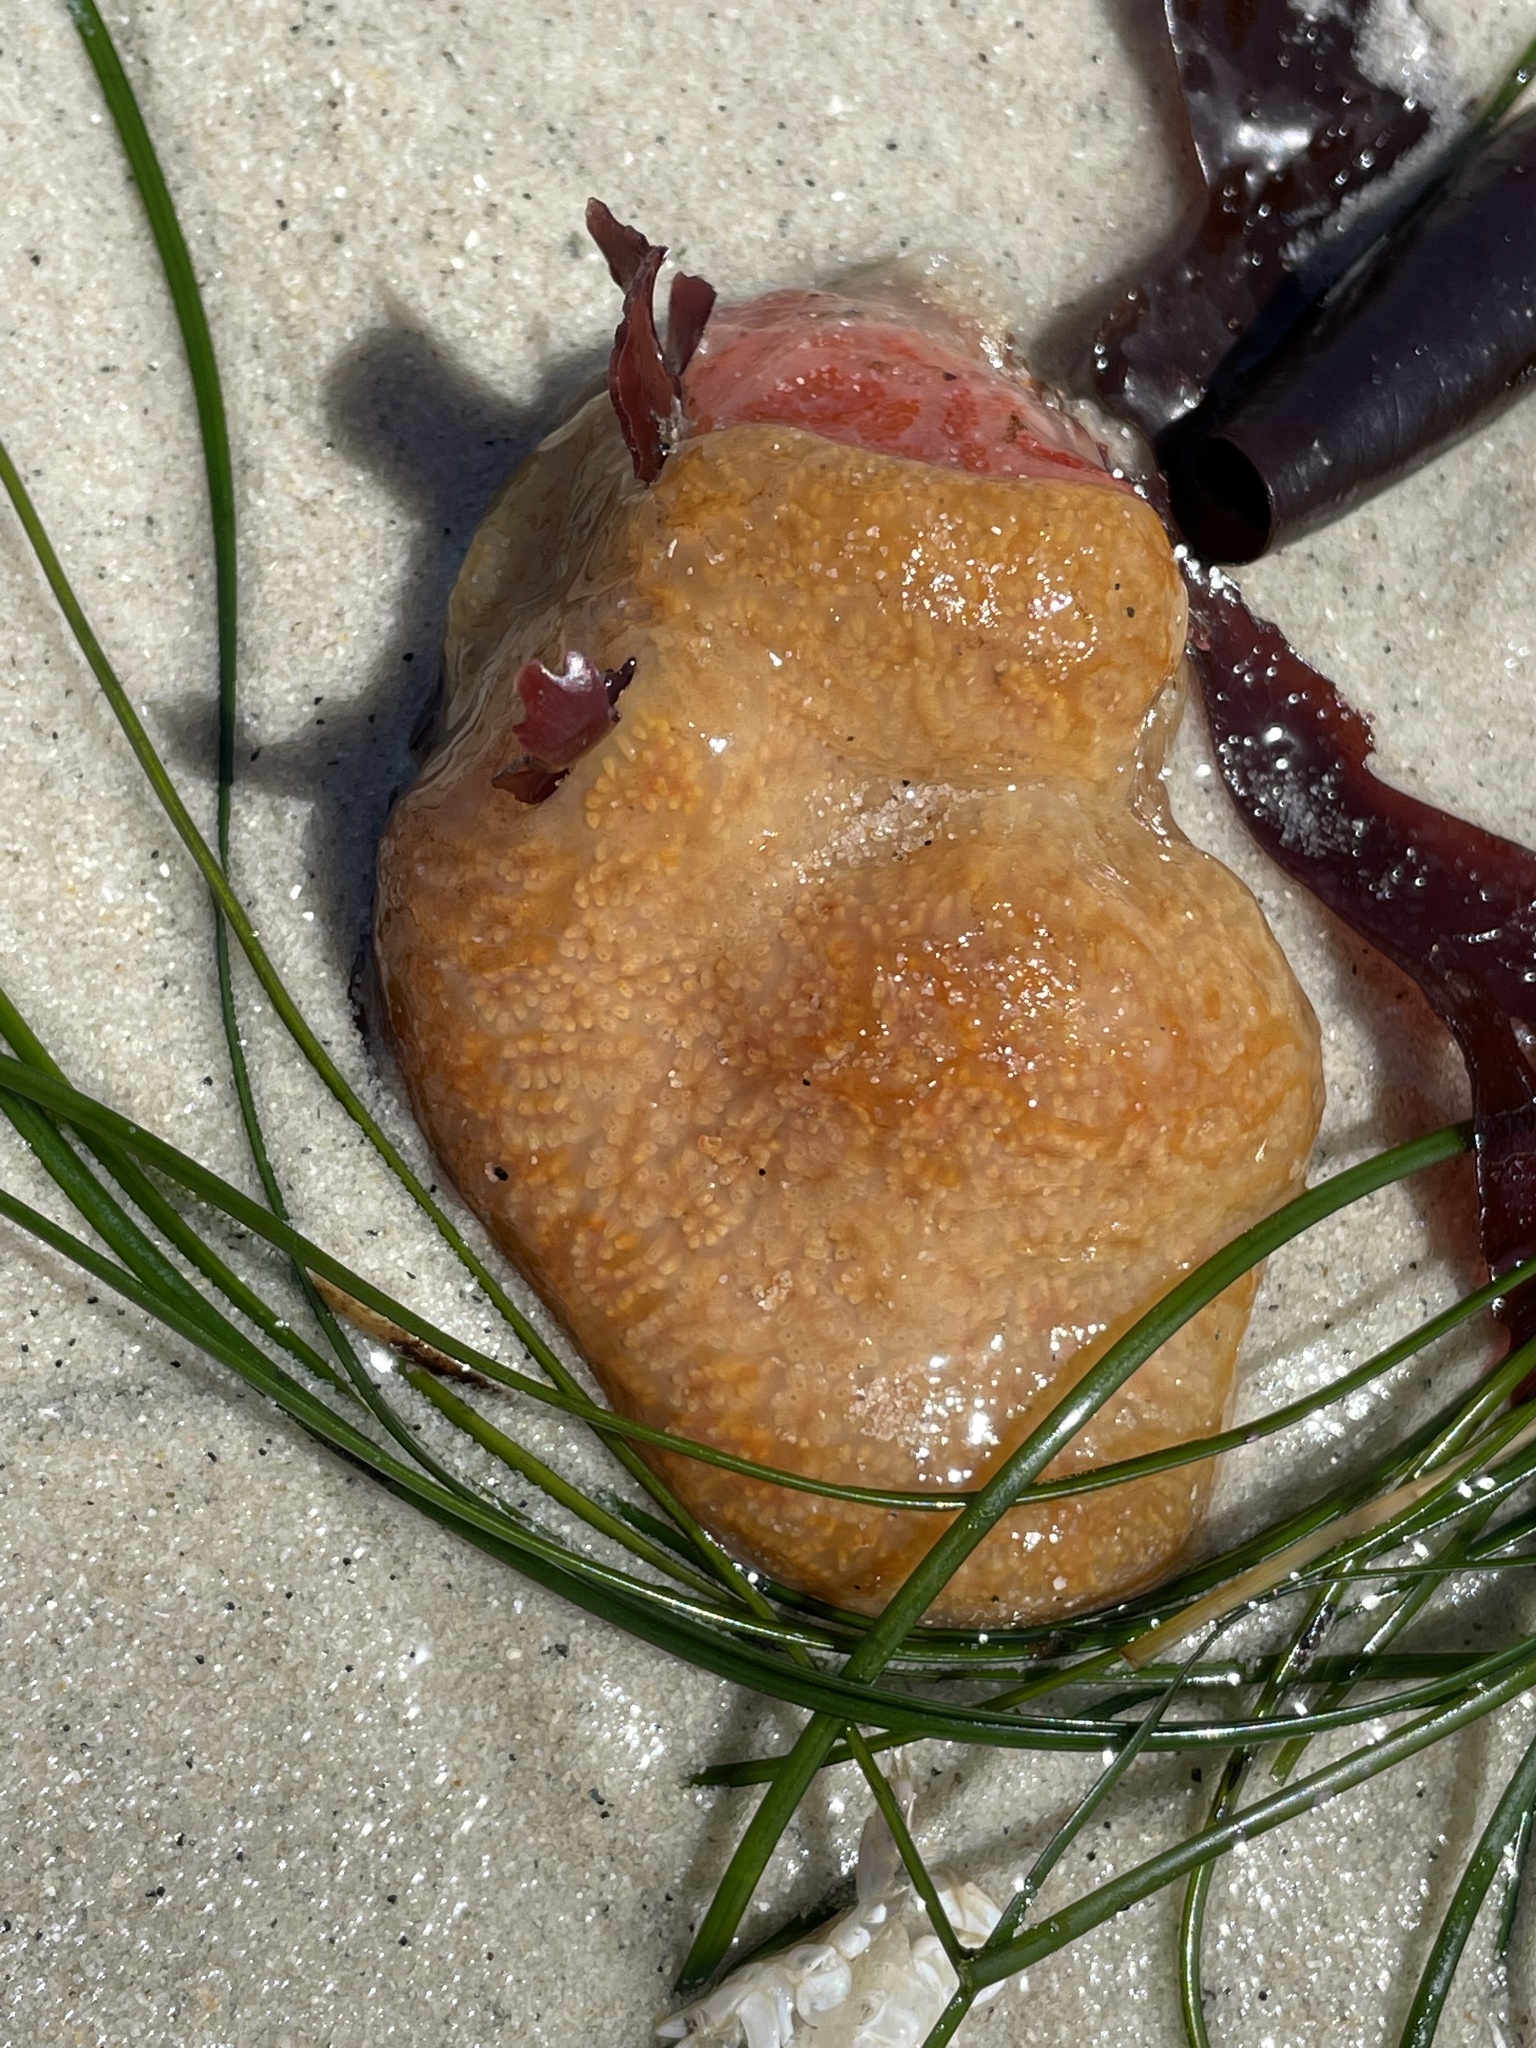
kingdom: Animalia
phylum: Chordata
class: Ascidiacea
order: Aplousobranchia
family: Polyclinidae
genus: Aplidium
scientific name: Aplidium californicum
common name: Sea pork
